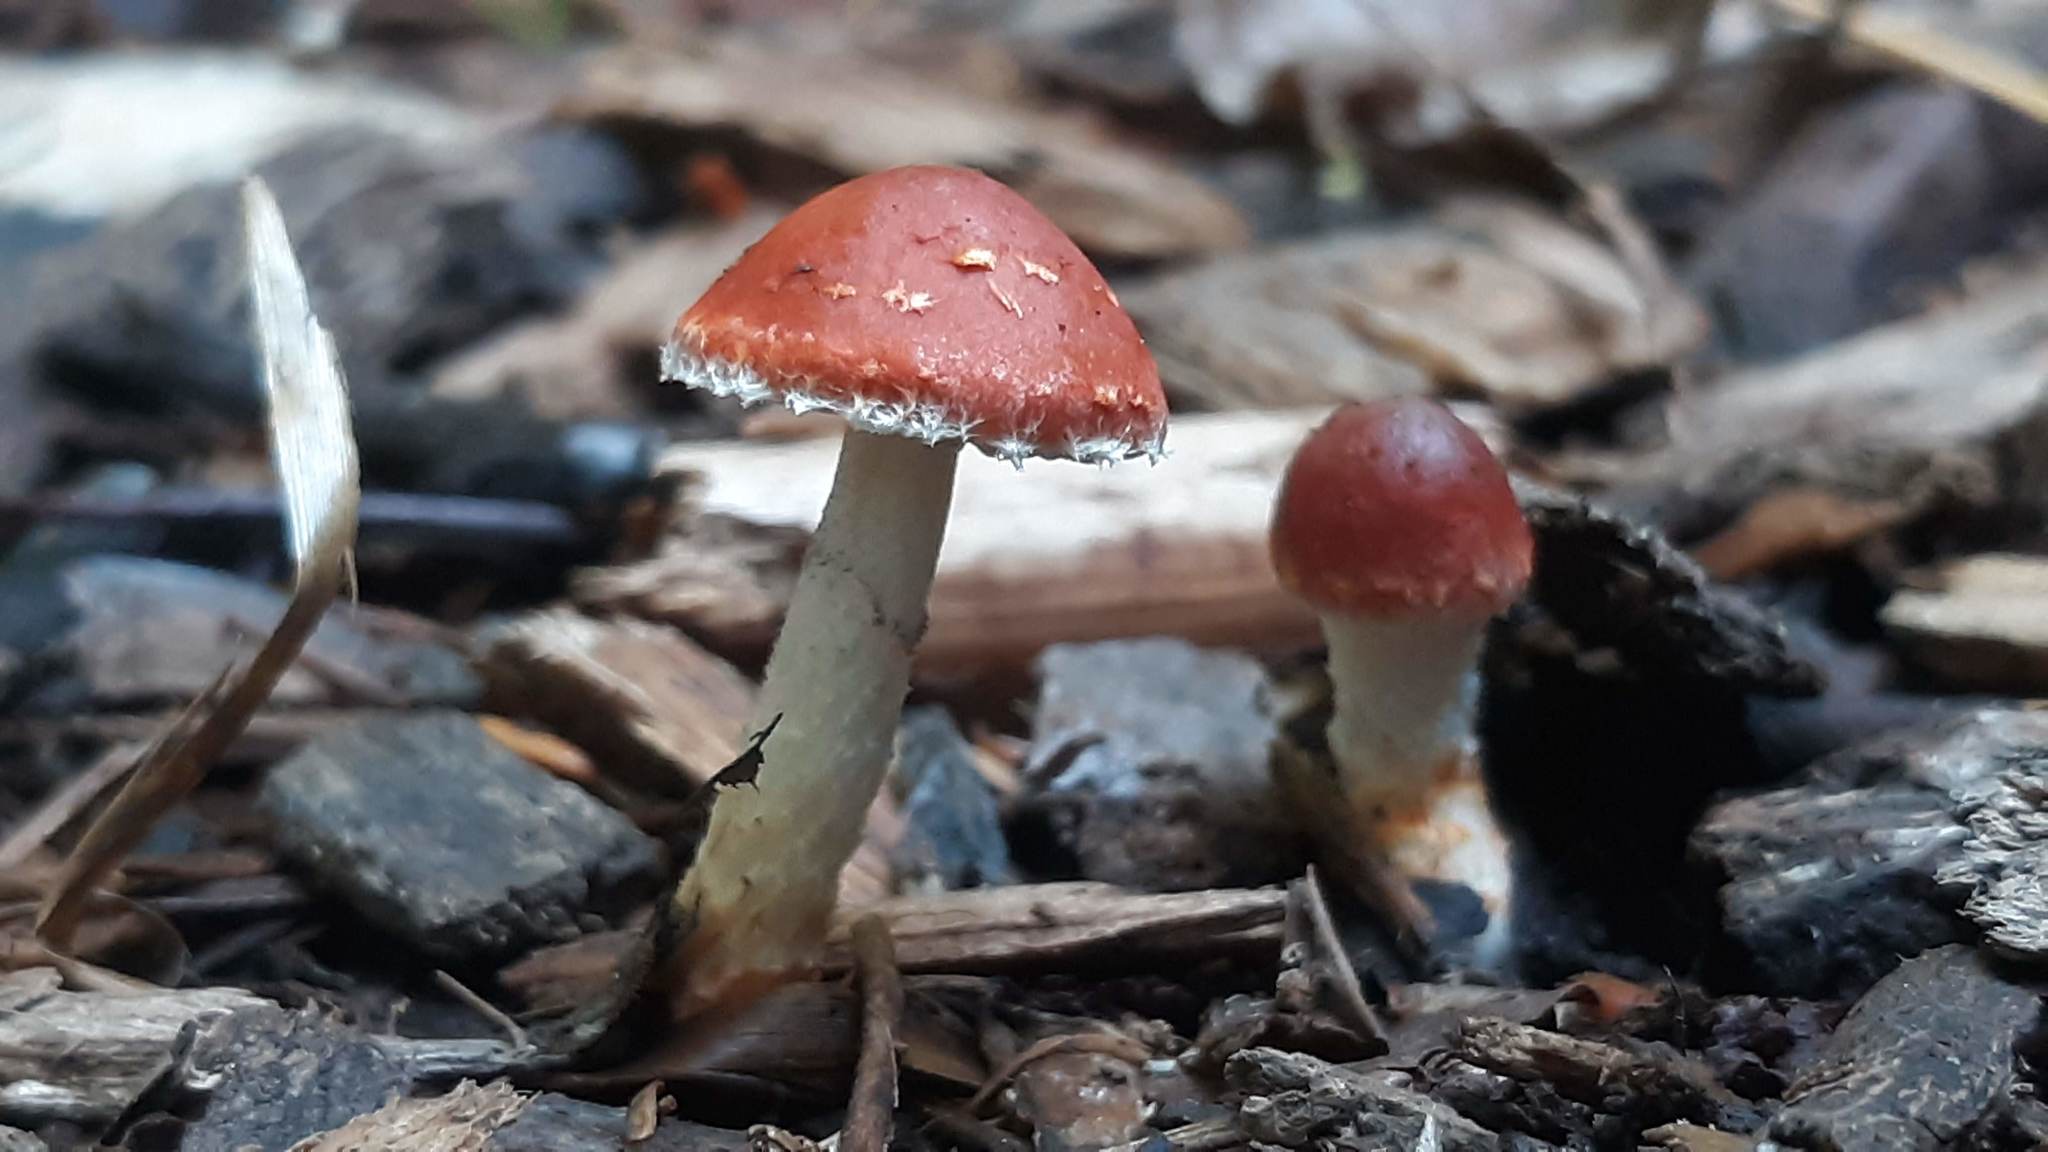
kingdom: Fungi
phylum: Basidiomycota
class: Agaricomycetes
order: Agaricales
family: Strophariaceae
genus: Leratiomyces
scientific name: Leratiomyces ceres
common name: Redlead roundhead
